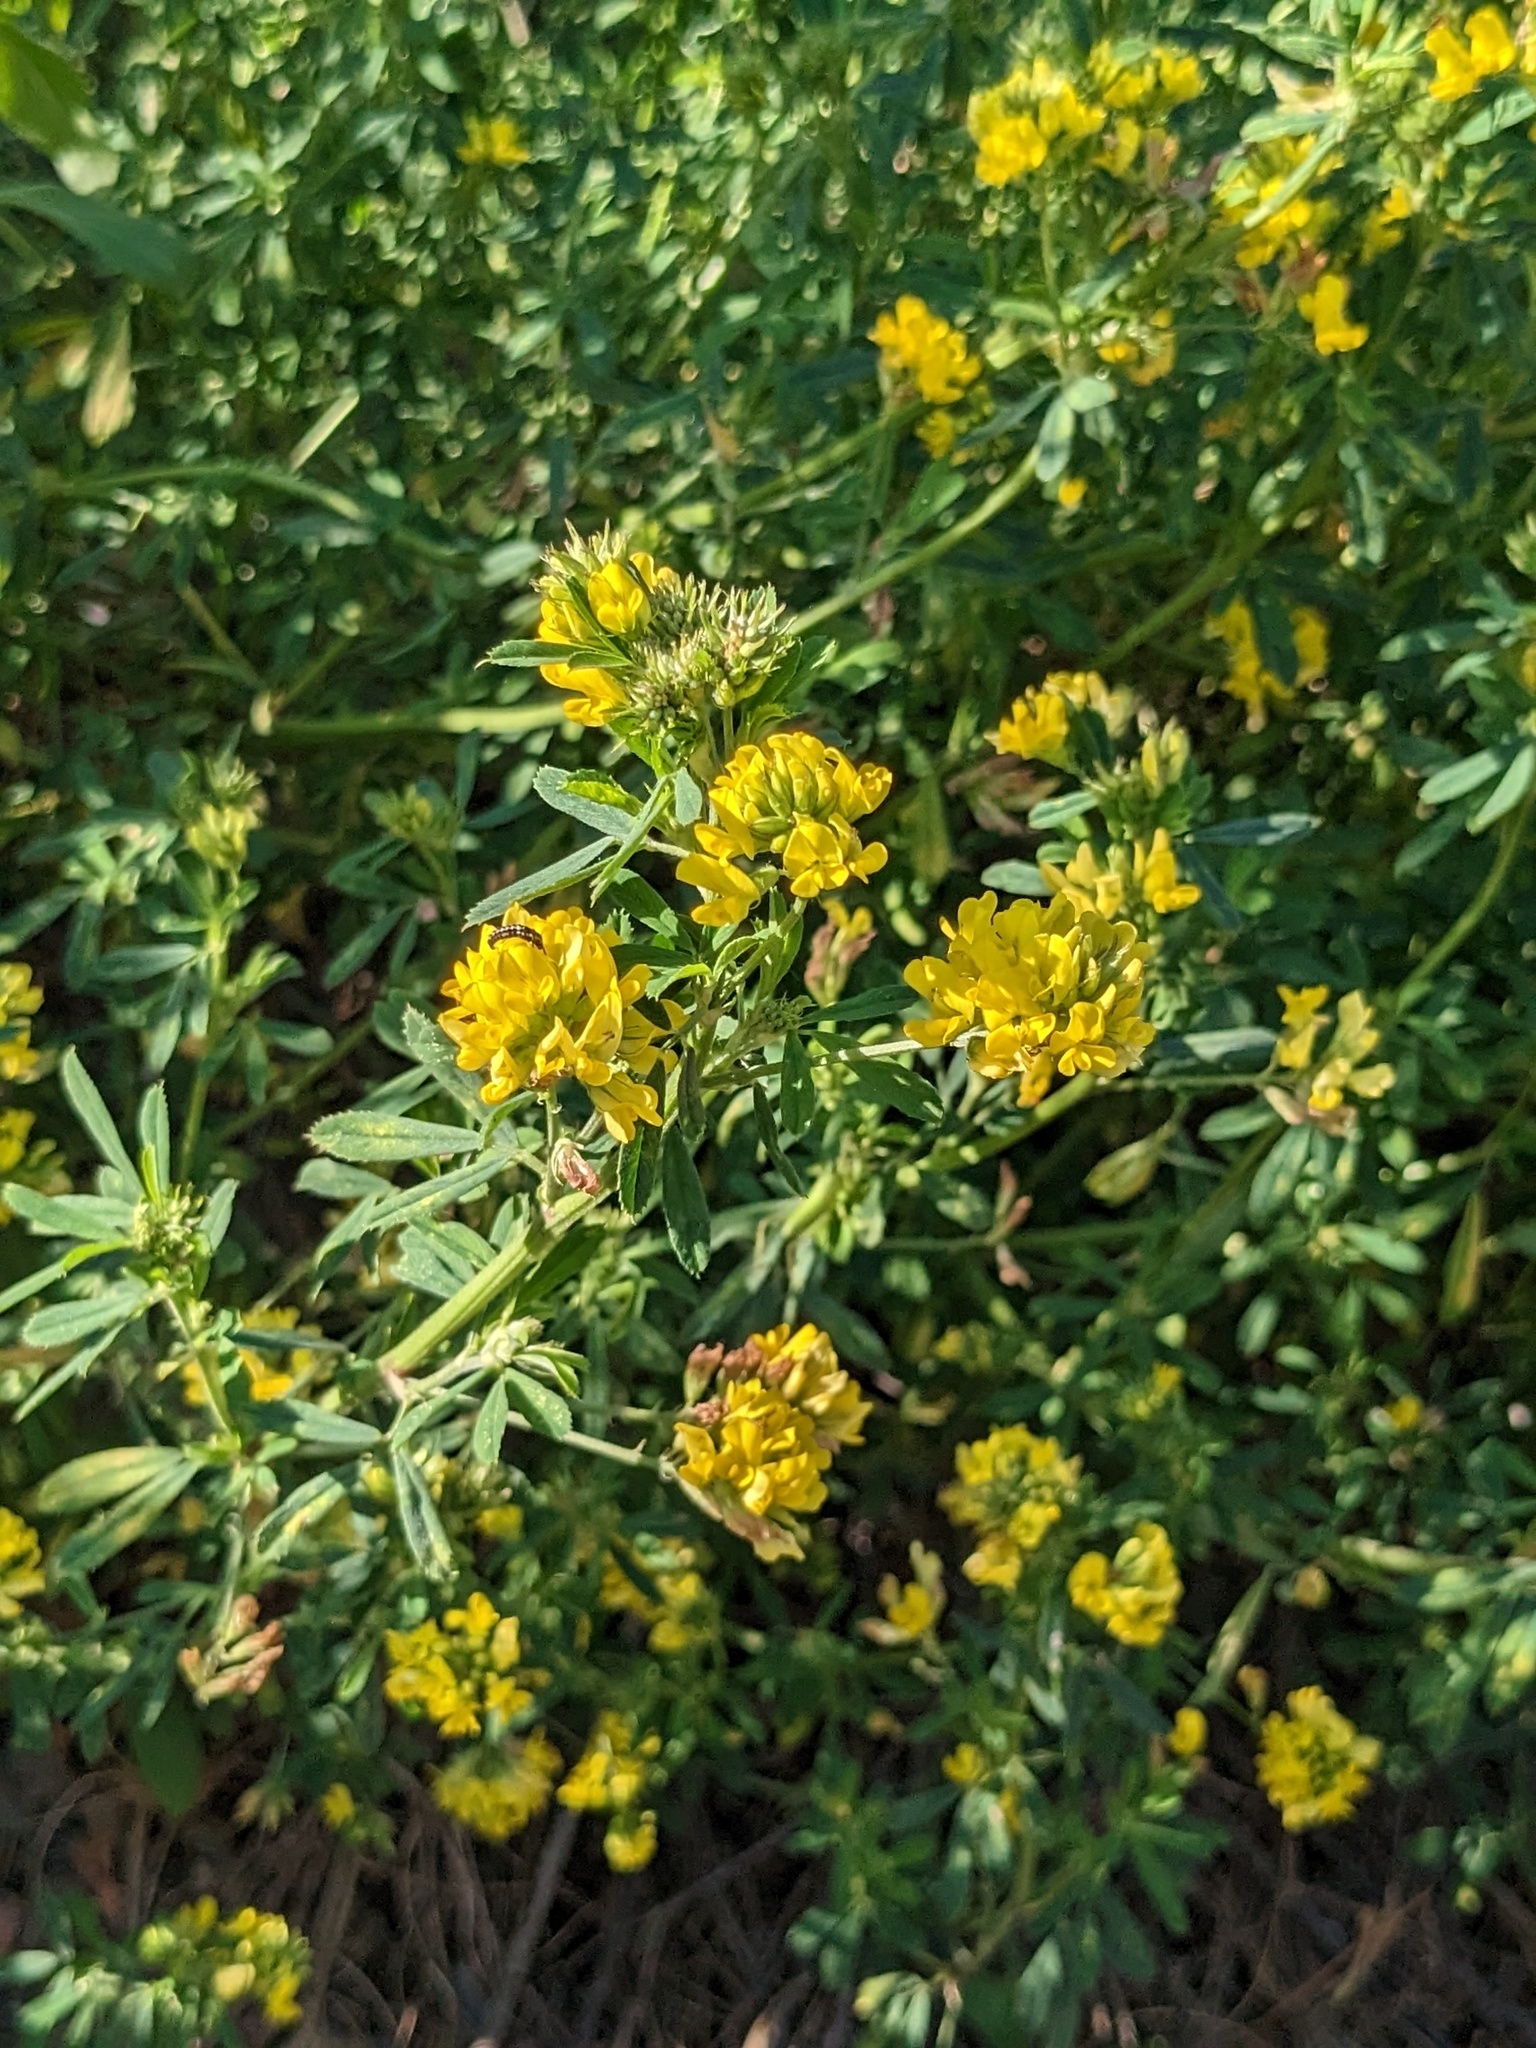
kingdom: Plantae
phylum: Tracheophyta
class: Magnoliopsida
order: Fabales
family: Fabaceae
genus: Medicago
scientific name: Medicago falcata
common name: Sickle medick
